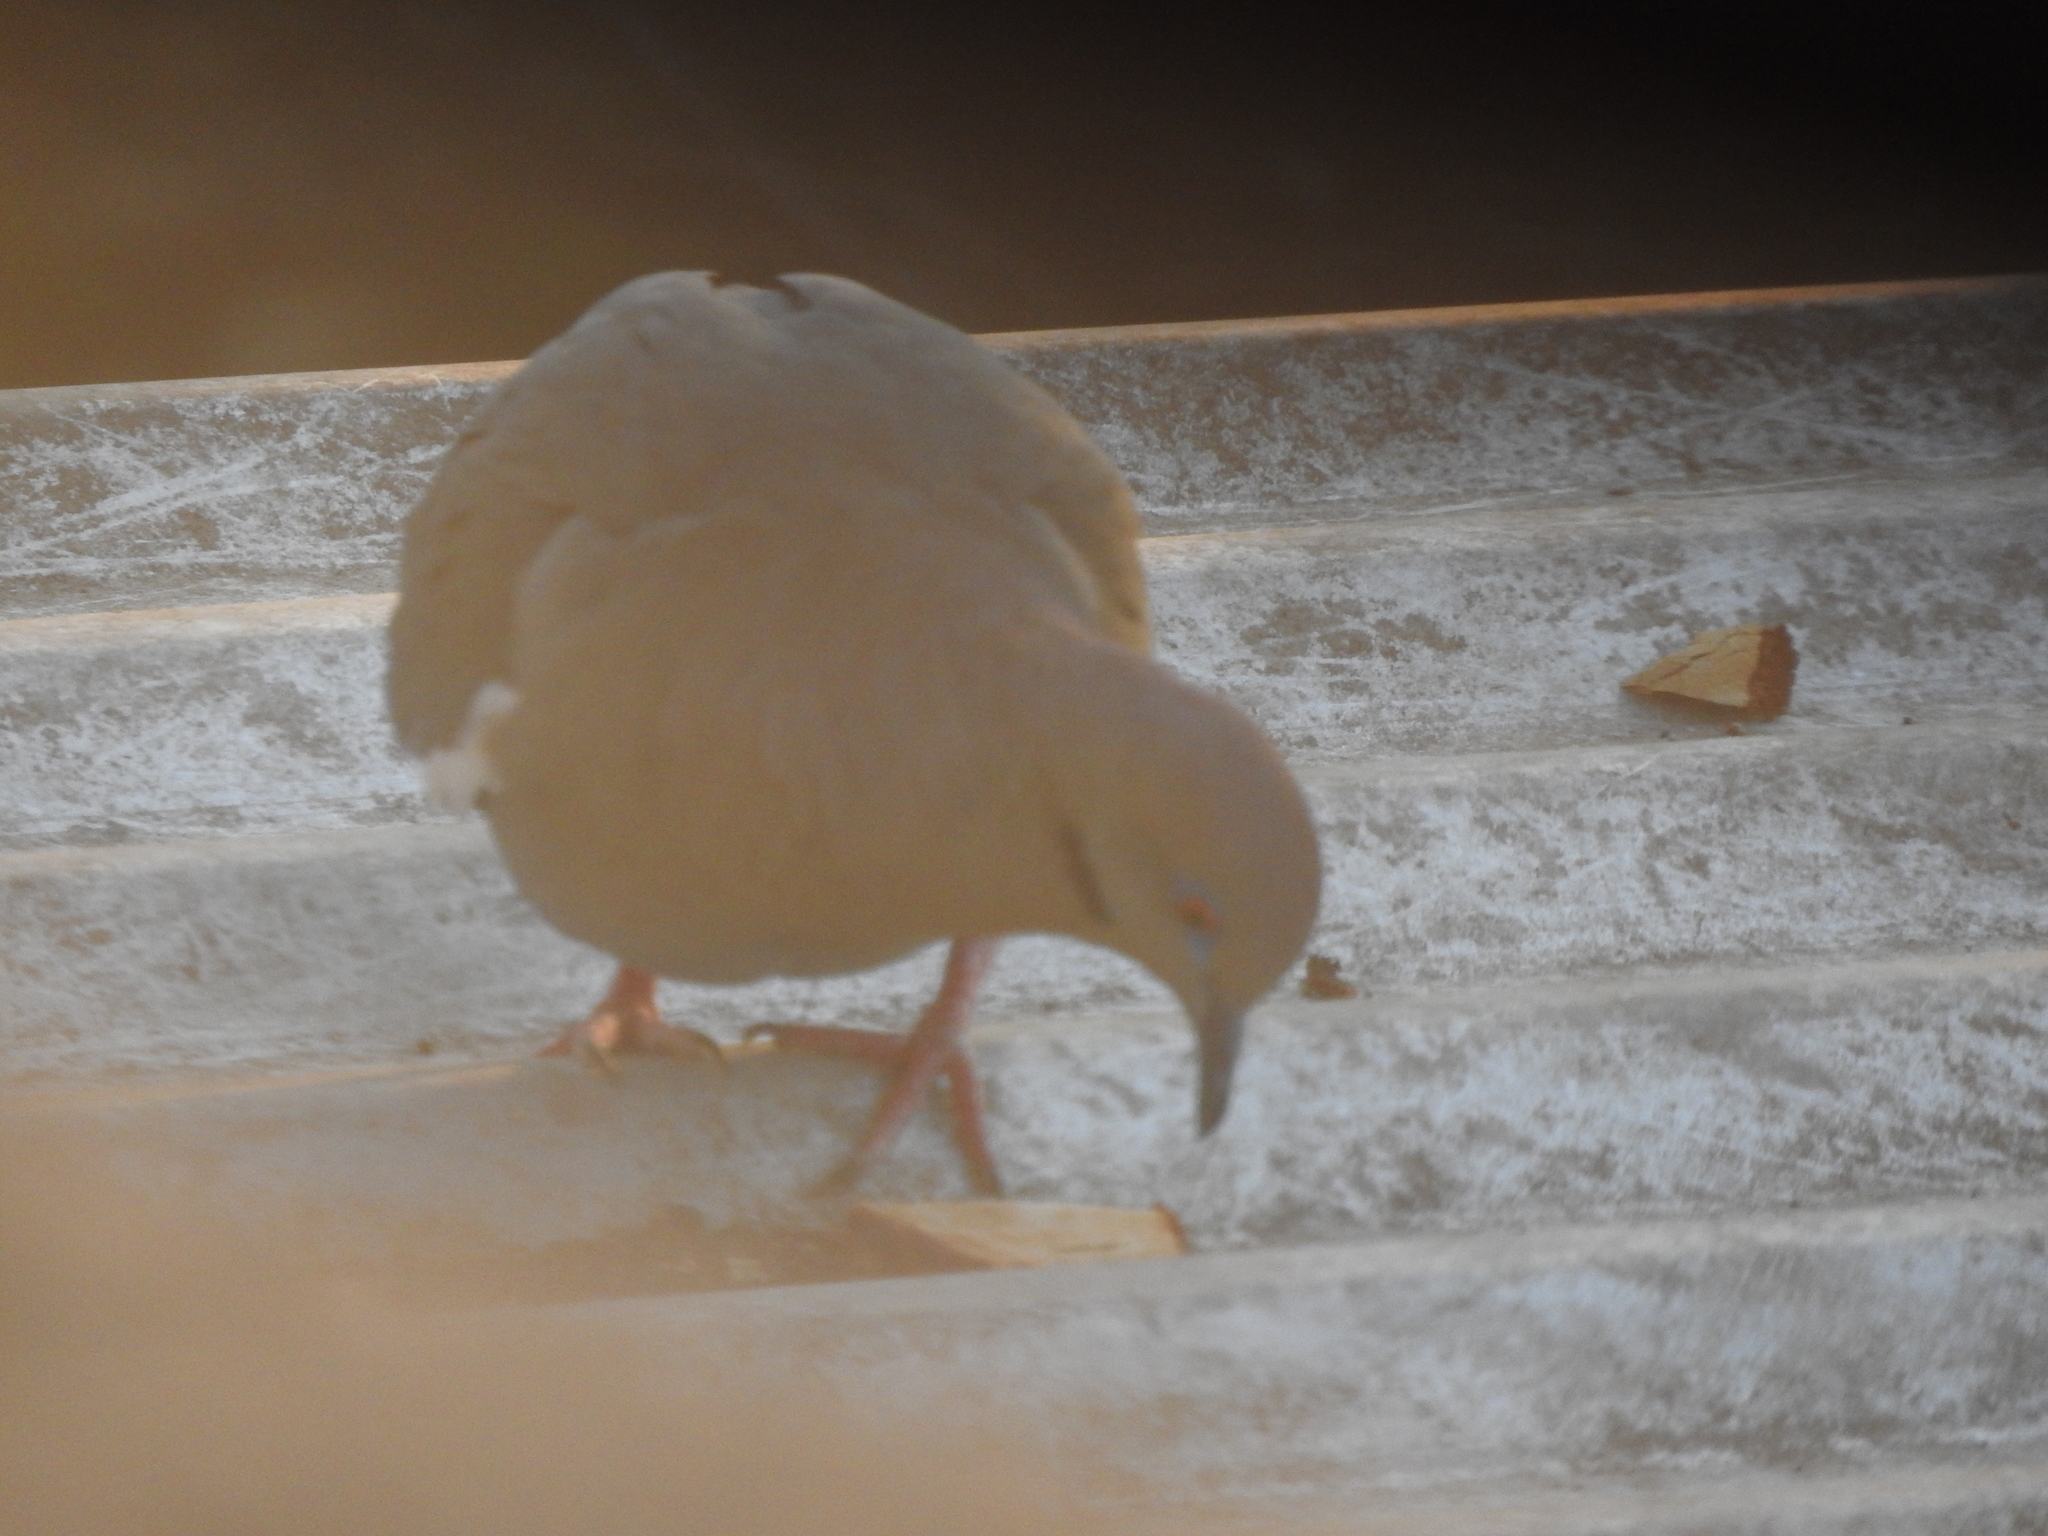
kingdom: Animalia
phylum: Chordata
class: Aves
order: Columbiformes
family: Columbidae
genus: Zenaida
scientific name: Zenaida asiatica
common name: White-winged dove
